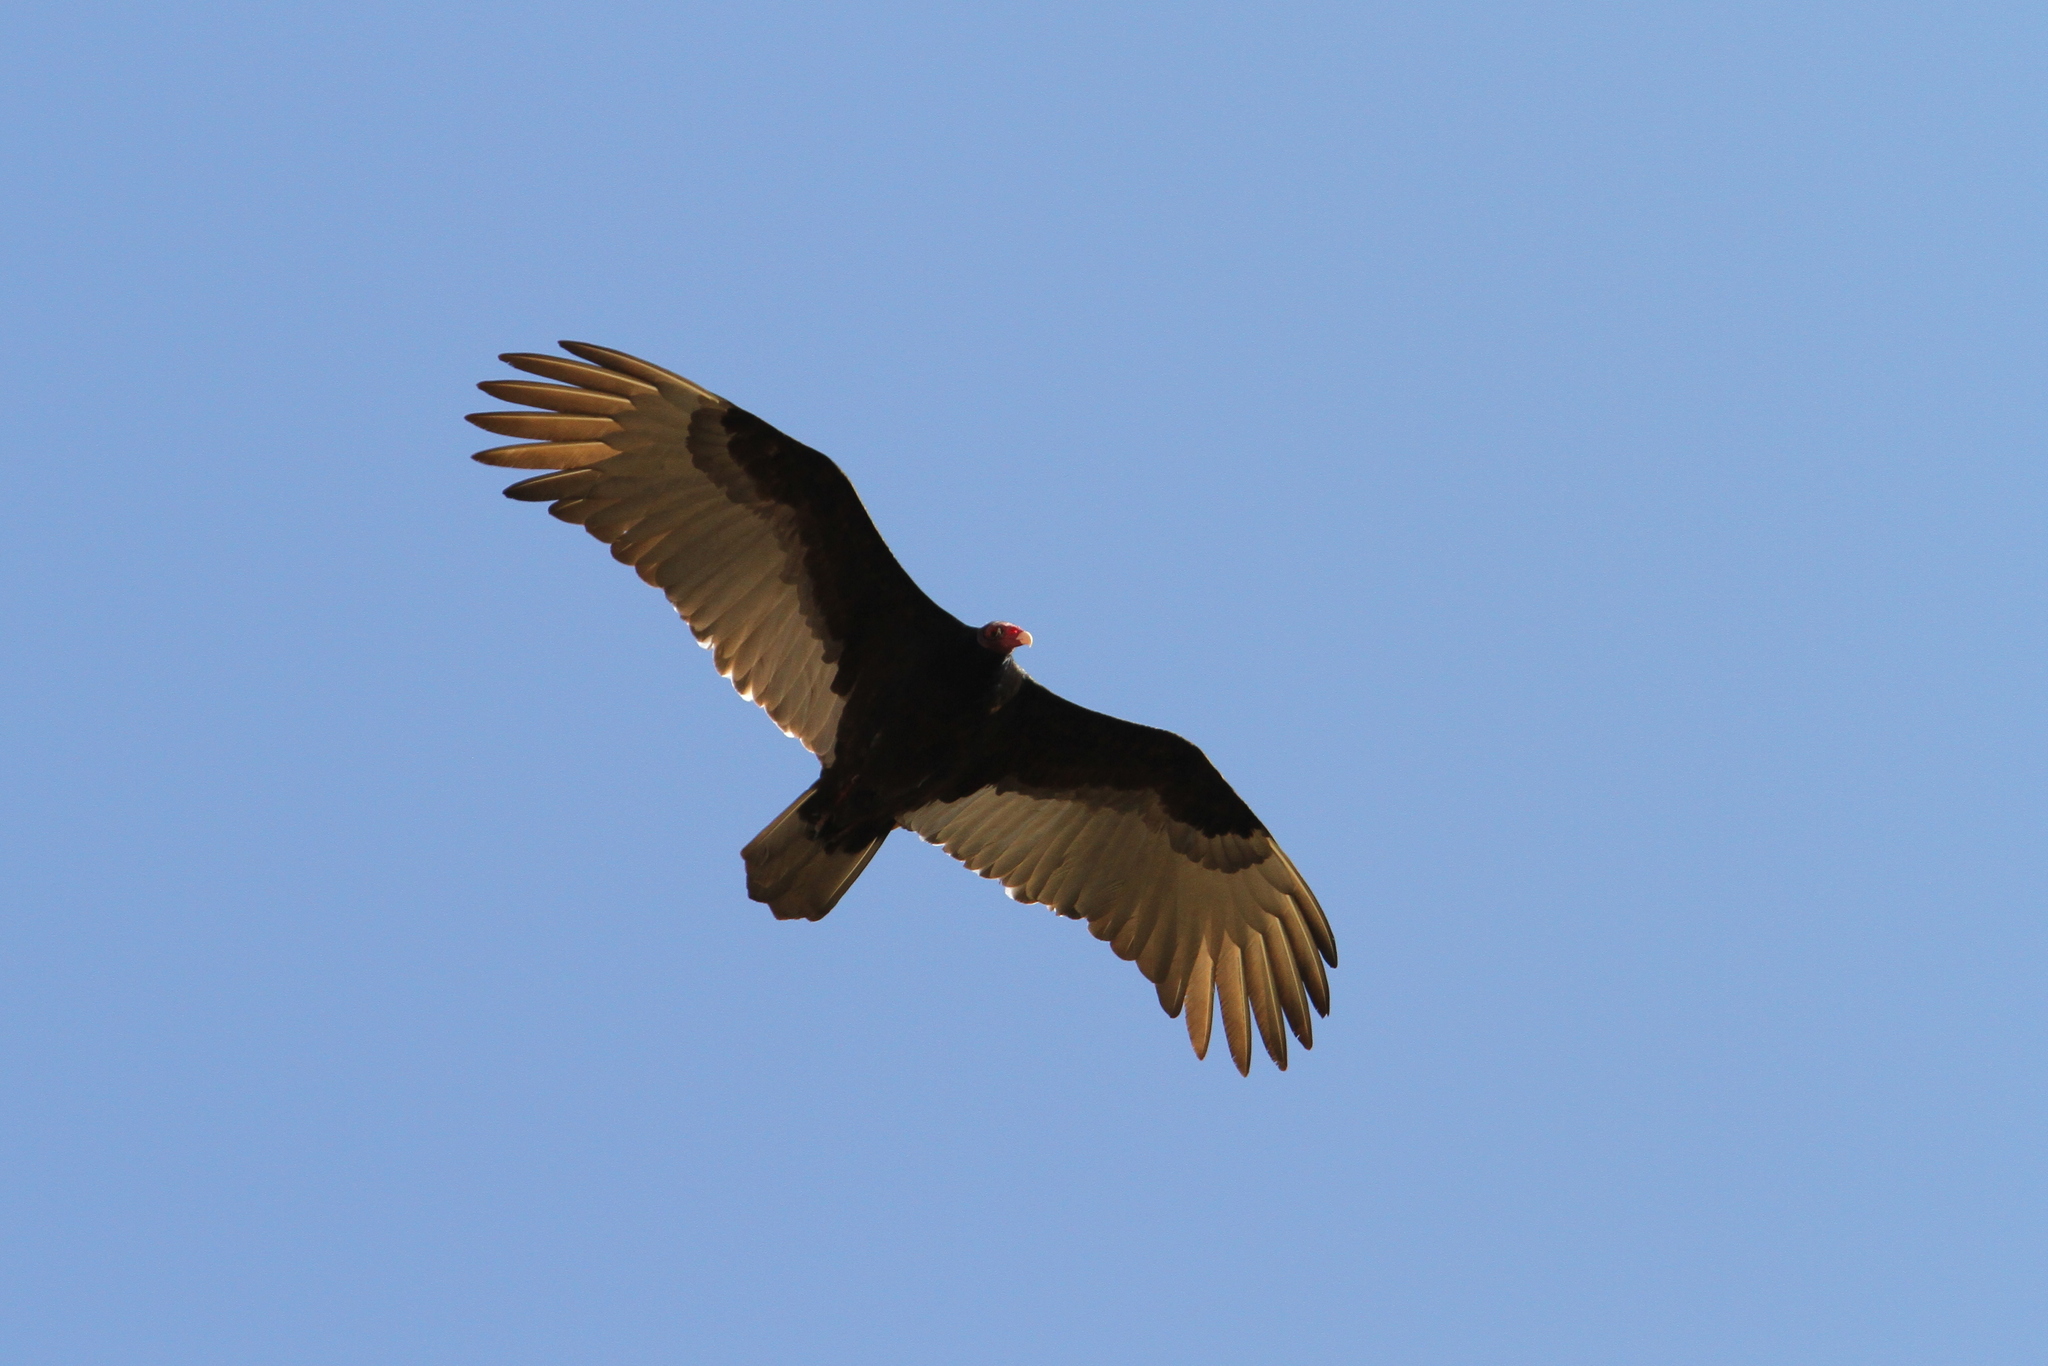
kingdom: Animalia
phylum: Chordata
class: Aves
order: Accipitriformes
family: Cathartidae
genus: Cathartes
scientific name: Cathartes aura
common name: Turkey vulture
